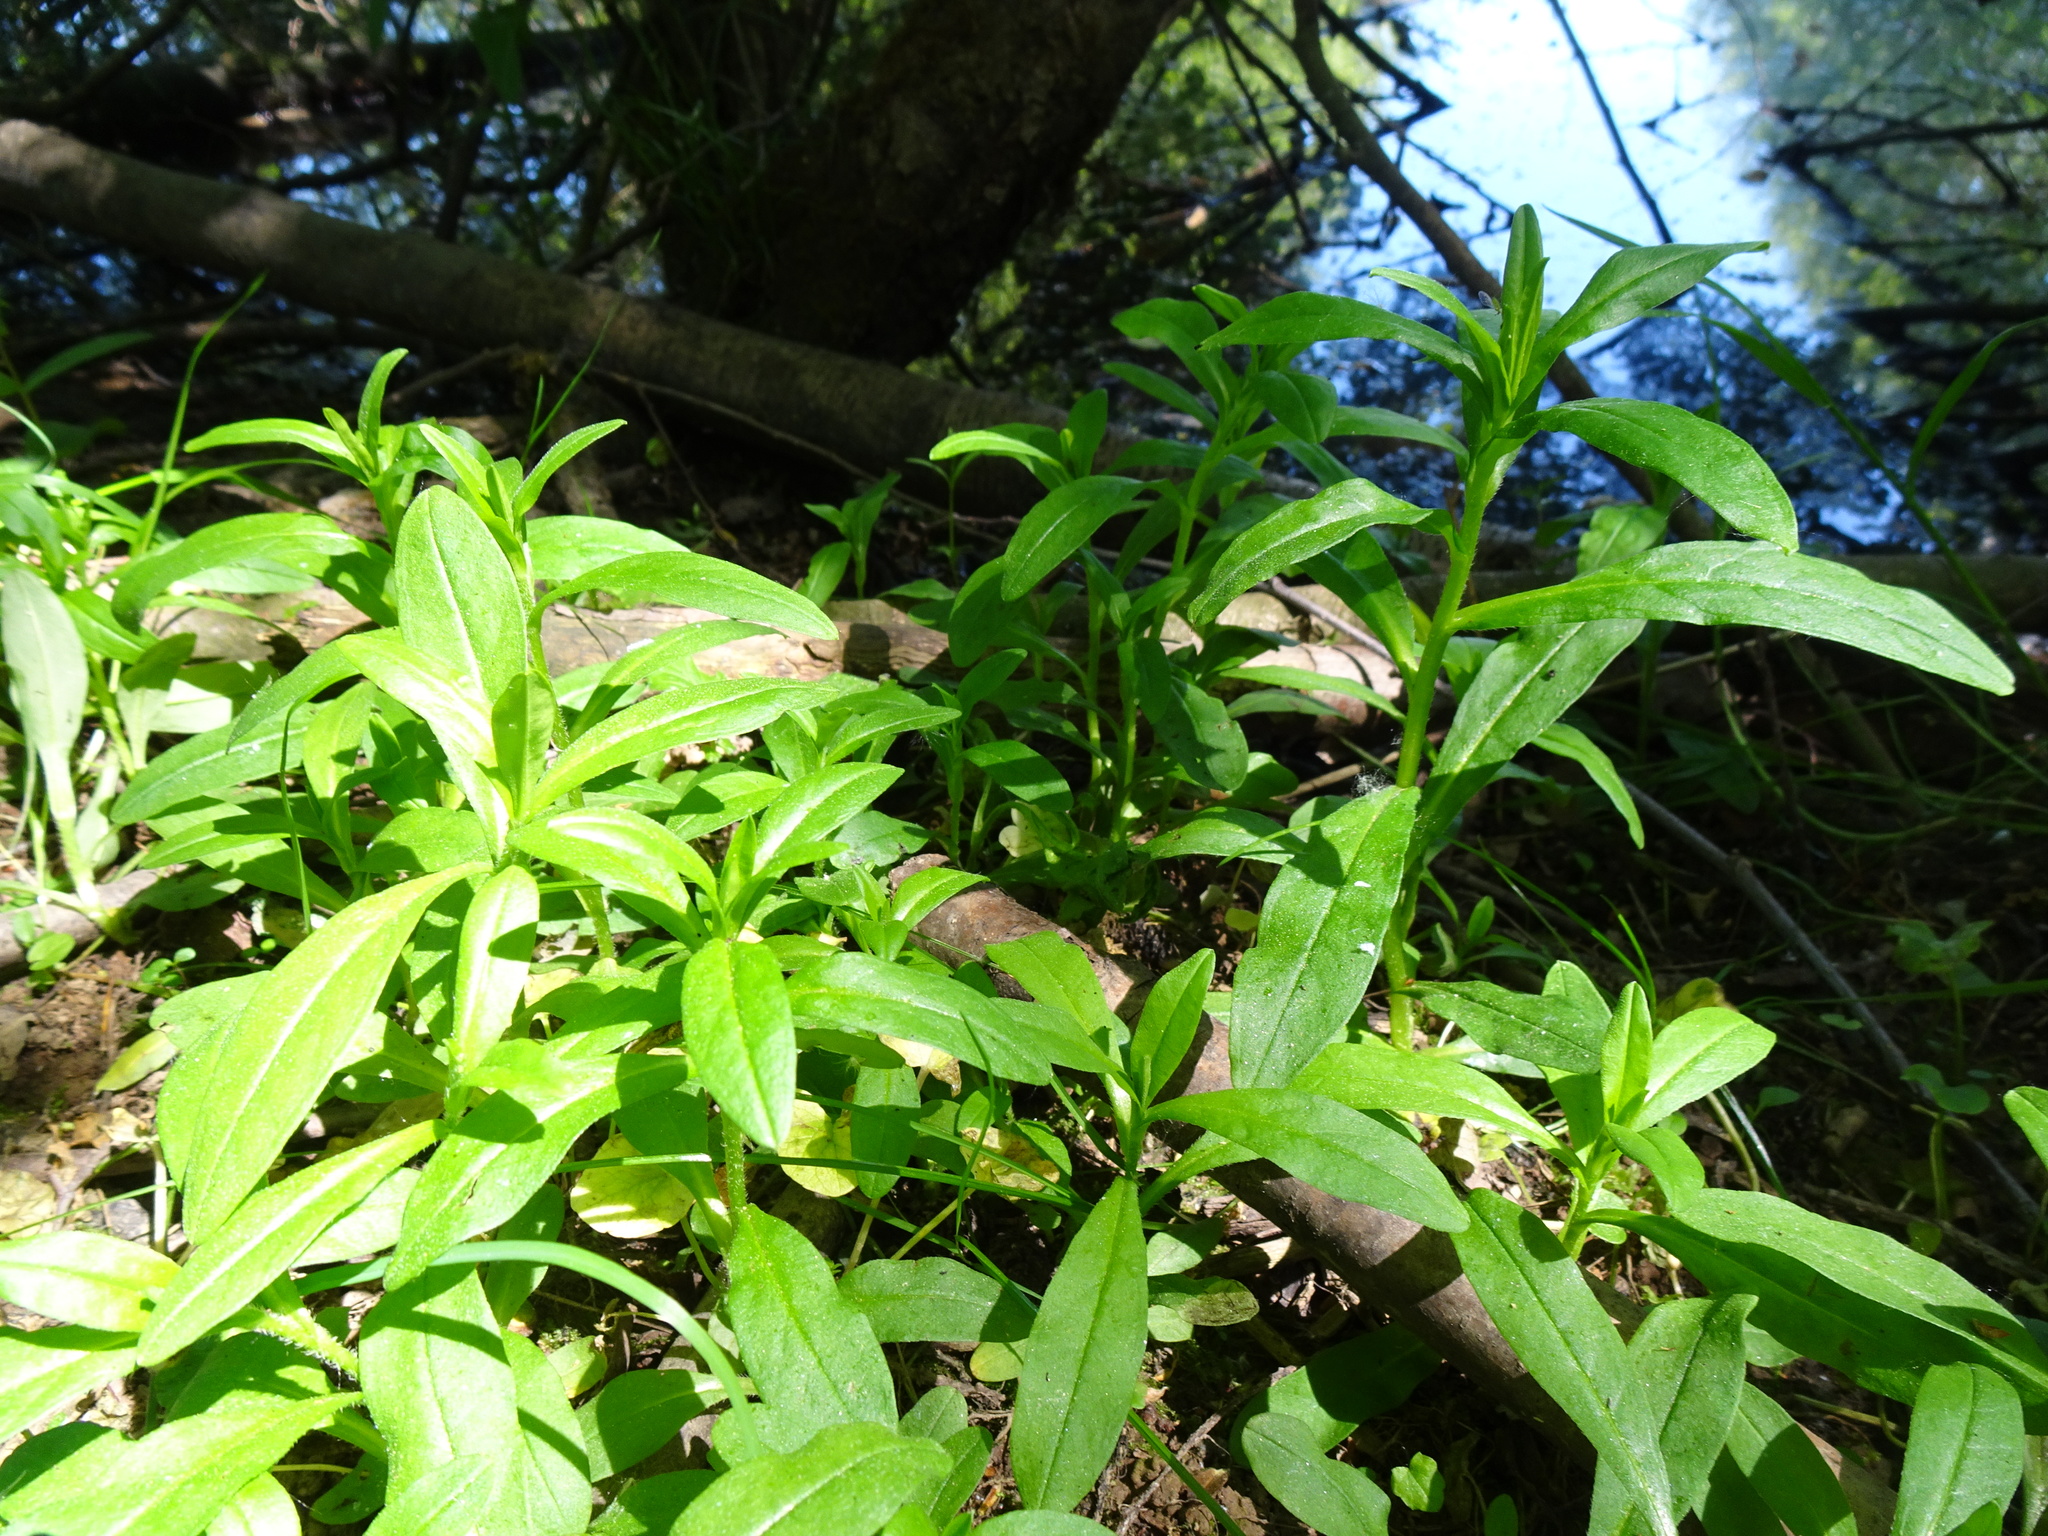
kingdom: Plantae
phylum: Tracheophyta
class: Magnoliopsida
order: Boraginales
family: Boraginaceae
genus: Myosotis
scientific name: Myosotis scorpioides
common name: Water forget-me-not
